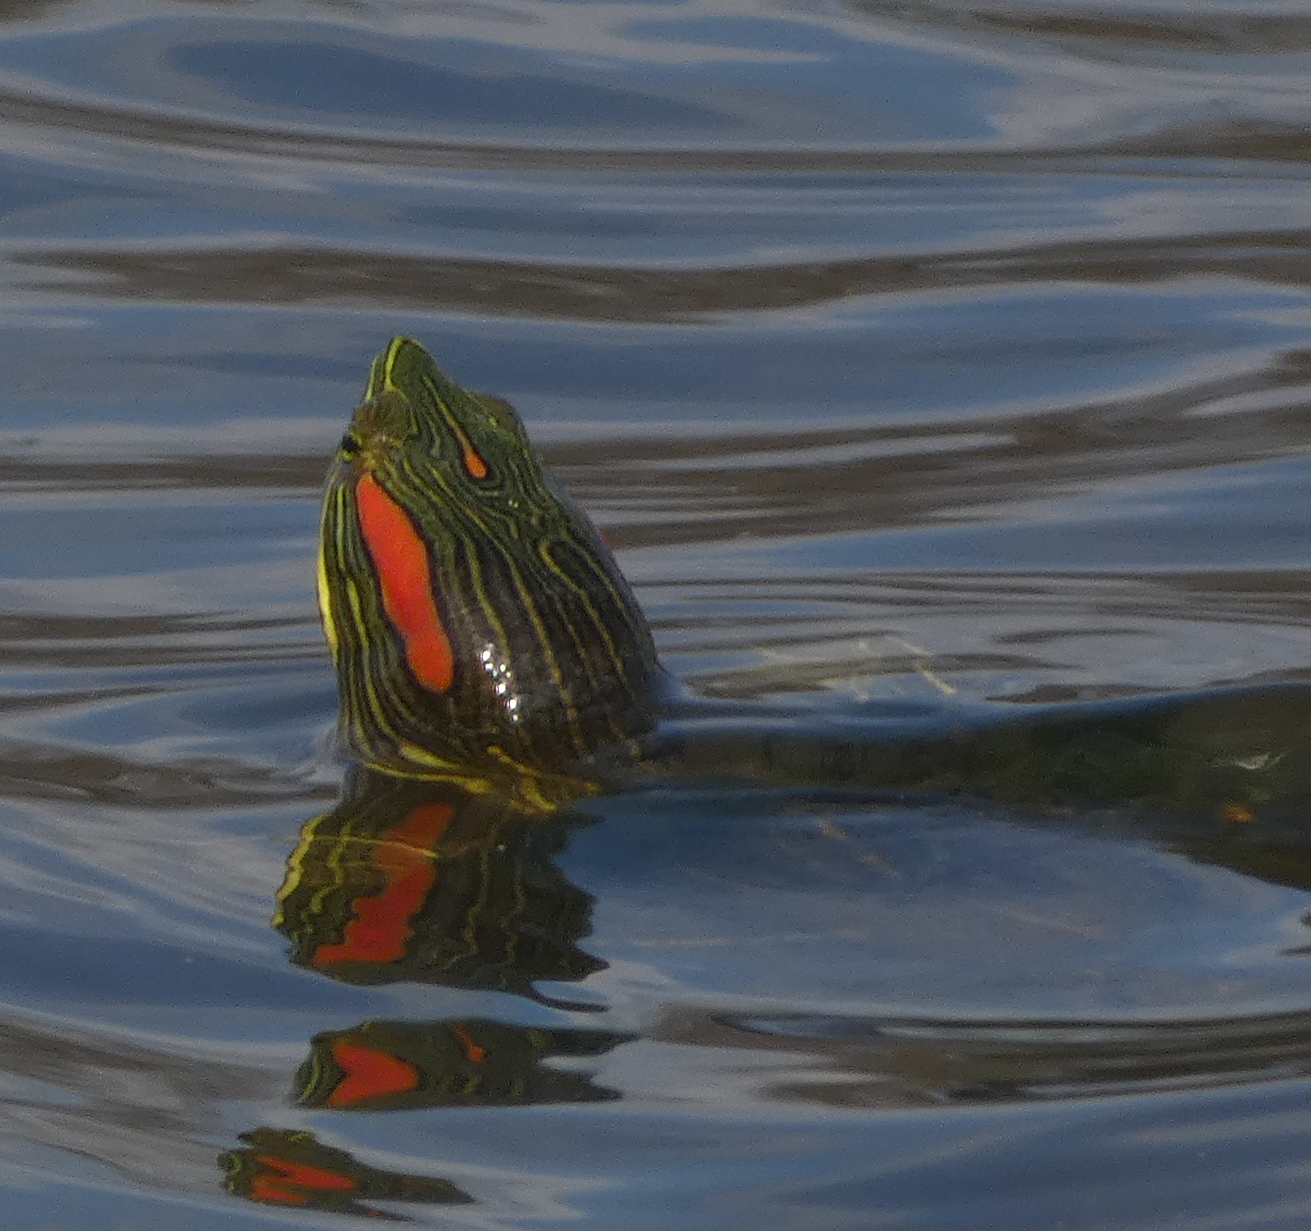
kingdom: Animalia
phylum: Chordata
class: Testudines
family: Emydidae
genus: Trachemys
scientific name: Trachemys scripta
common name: Slider
